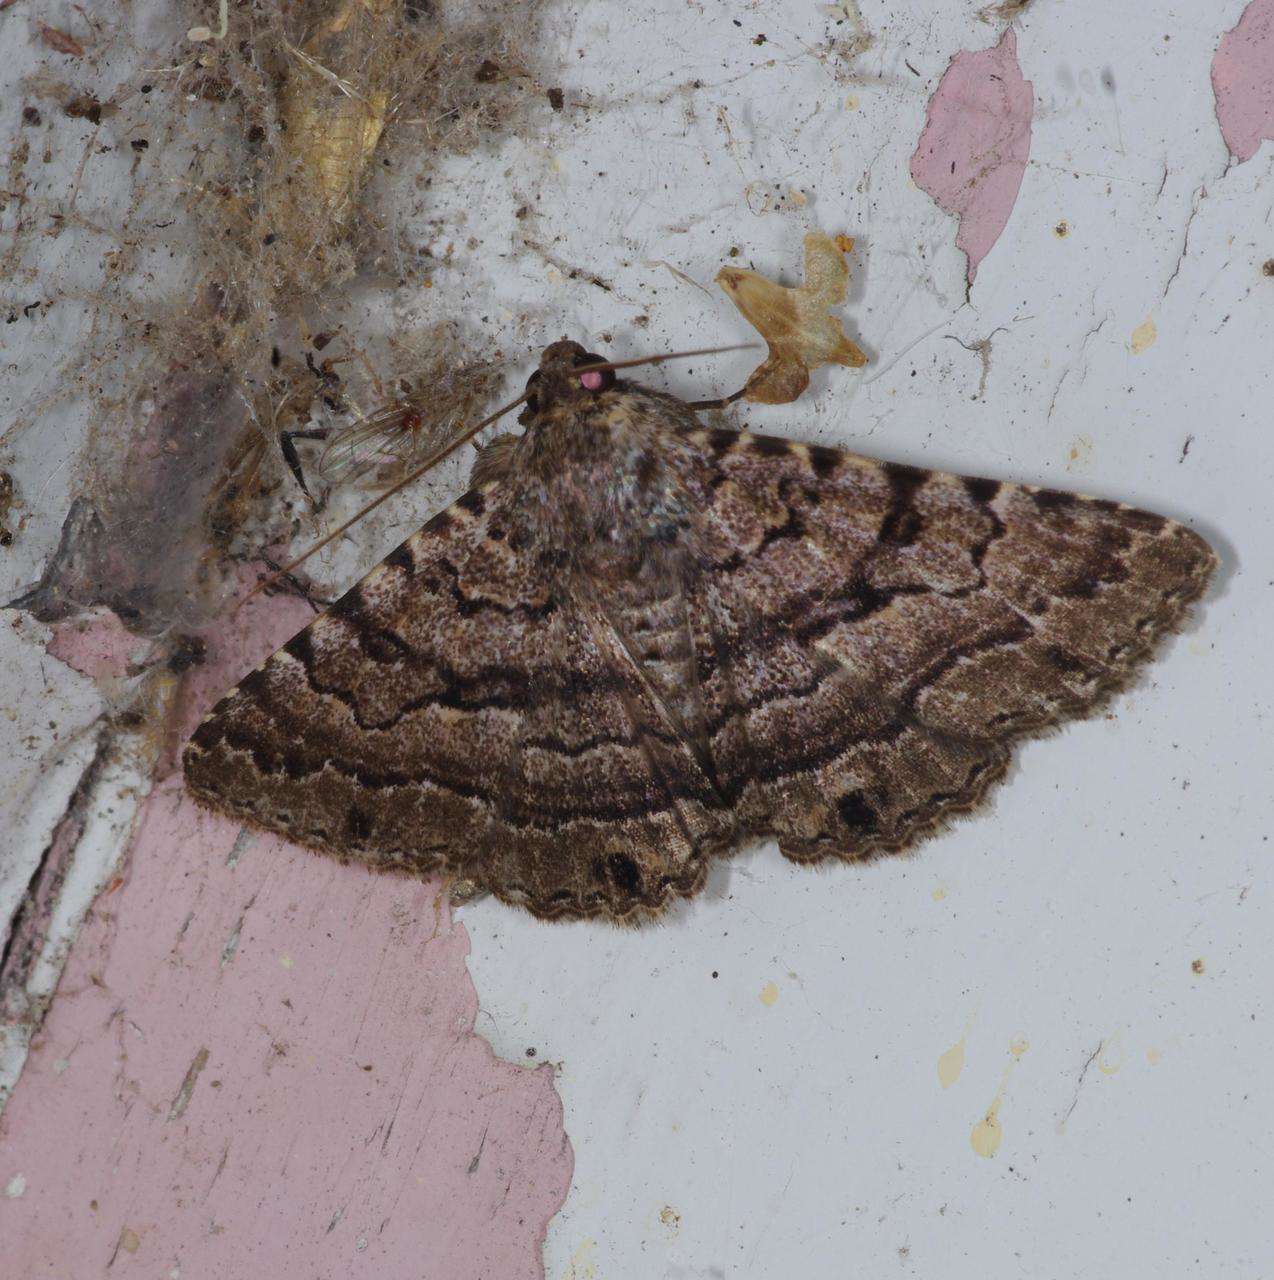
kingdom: Animalia
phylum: Arthropoda
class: Insecta
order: Lepidoptera
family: Erebidae
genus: Diatenes
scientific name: Diatenes aglossoides
